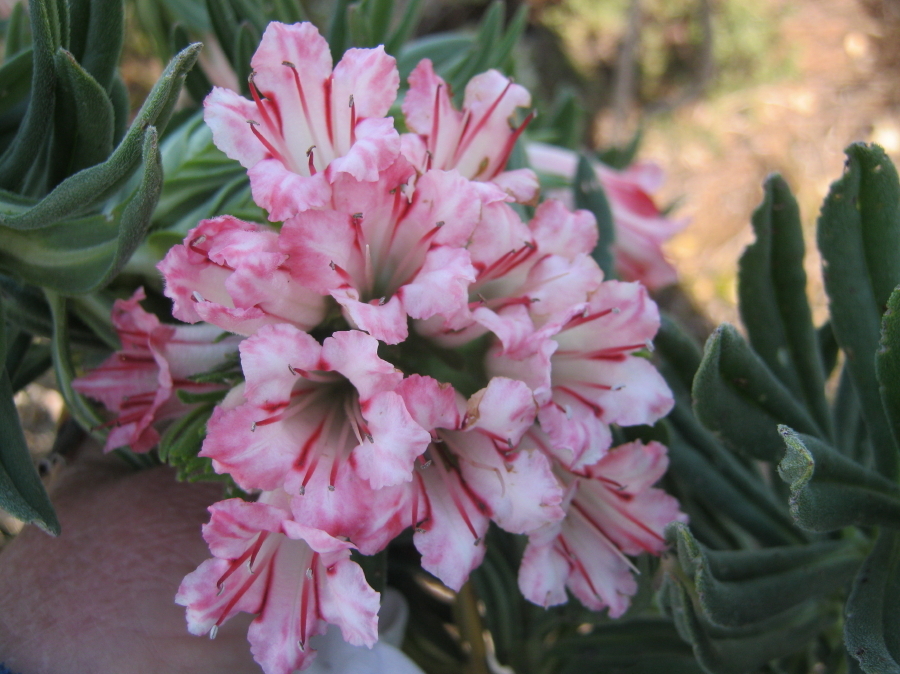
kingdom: Plantae
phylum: Tracheophyta
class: Magnoliopsida
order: Boraginales
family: Boraginaceae
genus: Lobostemon
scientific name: Lobostemon belliformis
